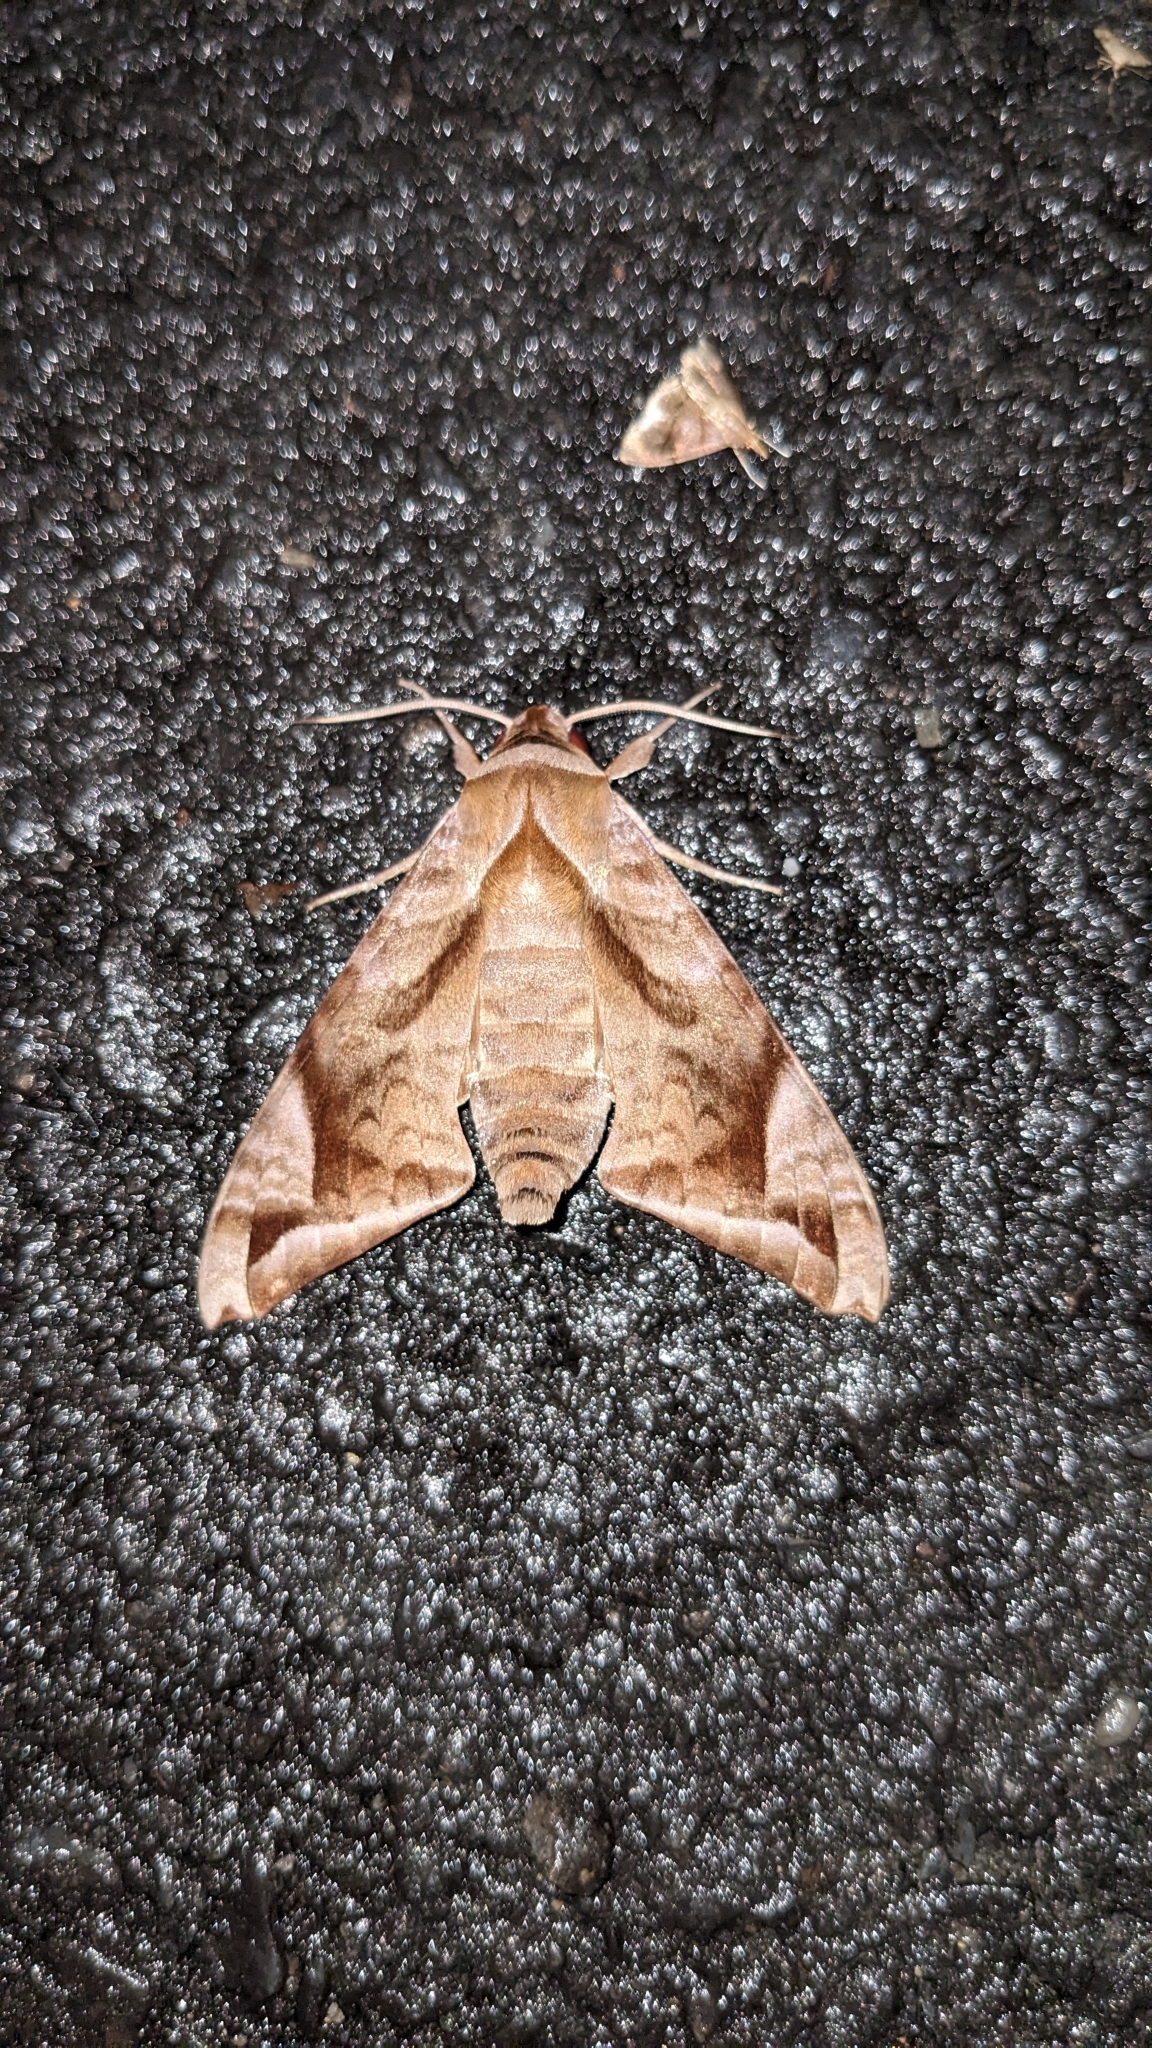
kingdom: Animalia
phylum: Arthropoda
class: Insecta
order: Lepidoptera
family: Sphingidae
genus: Acosmeryx
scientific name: Acosmeryx naga
